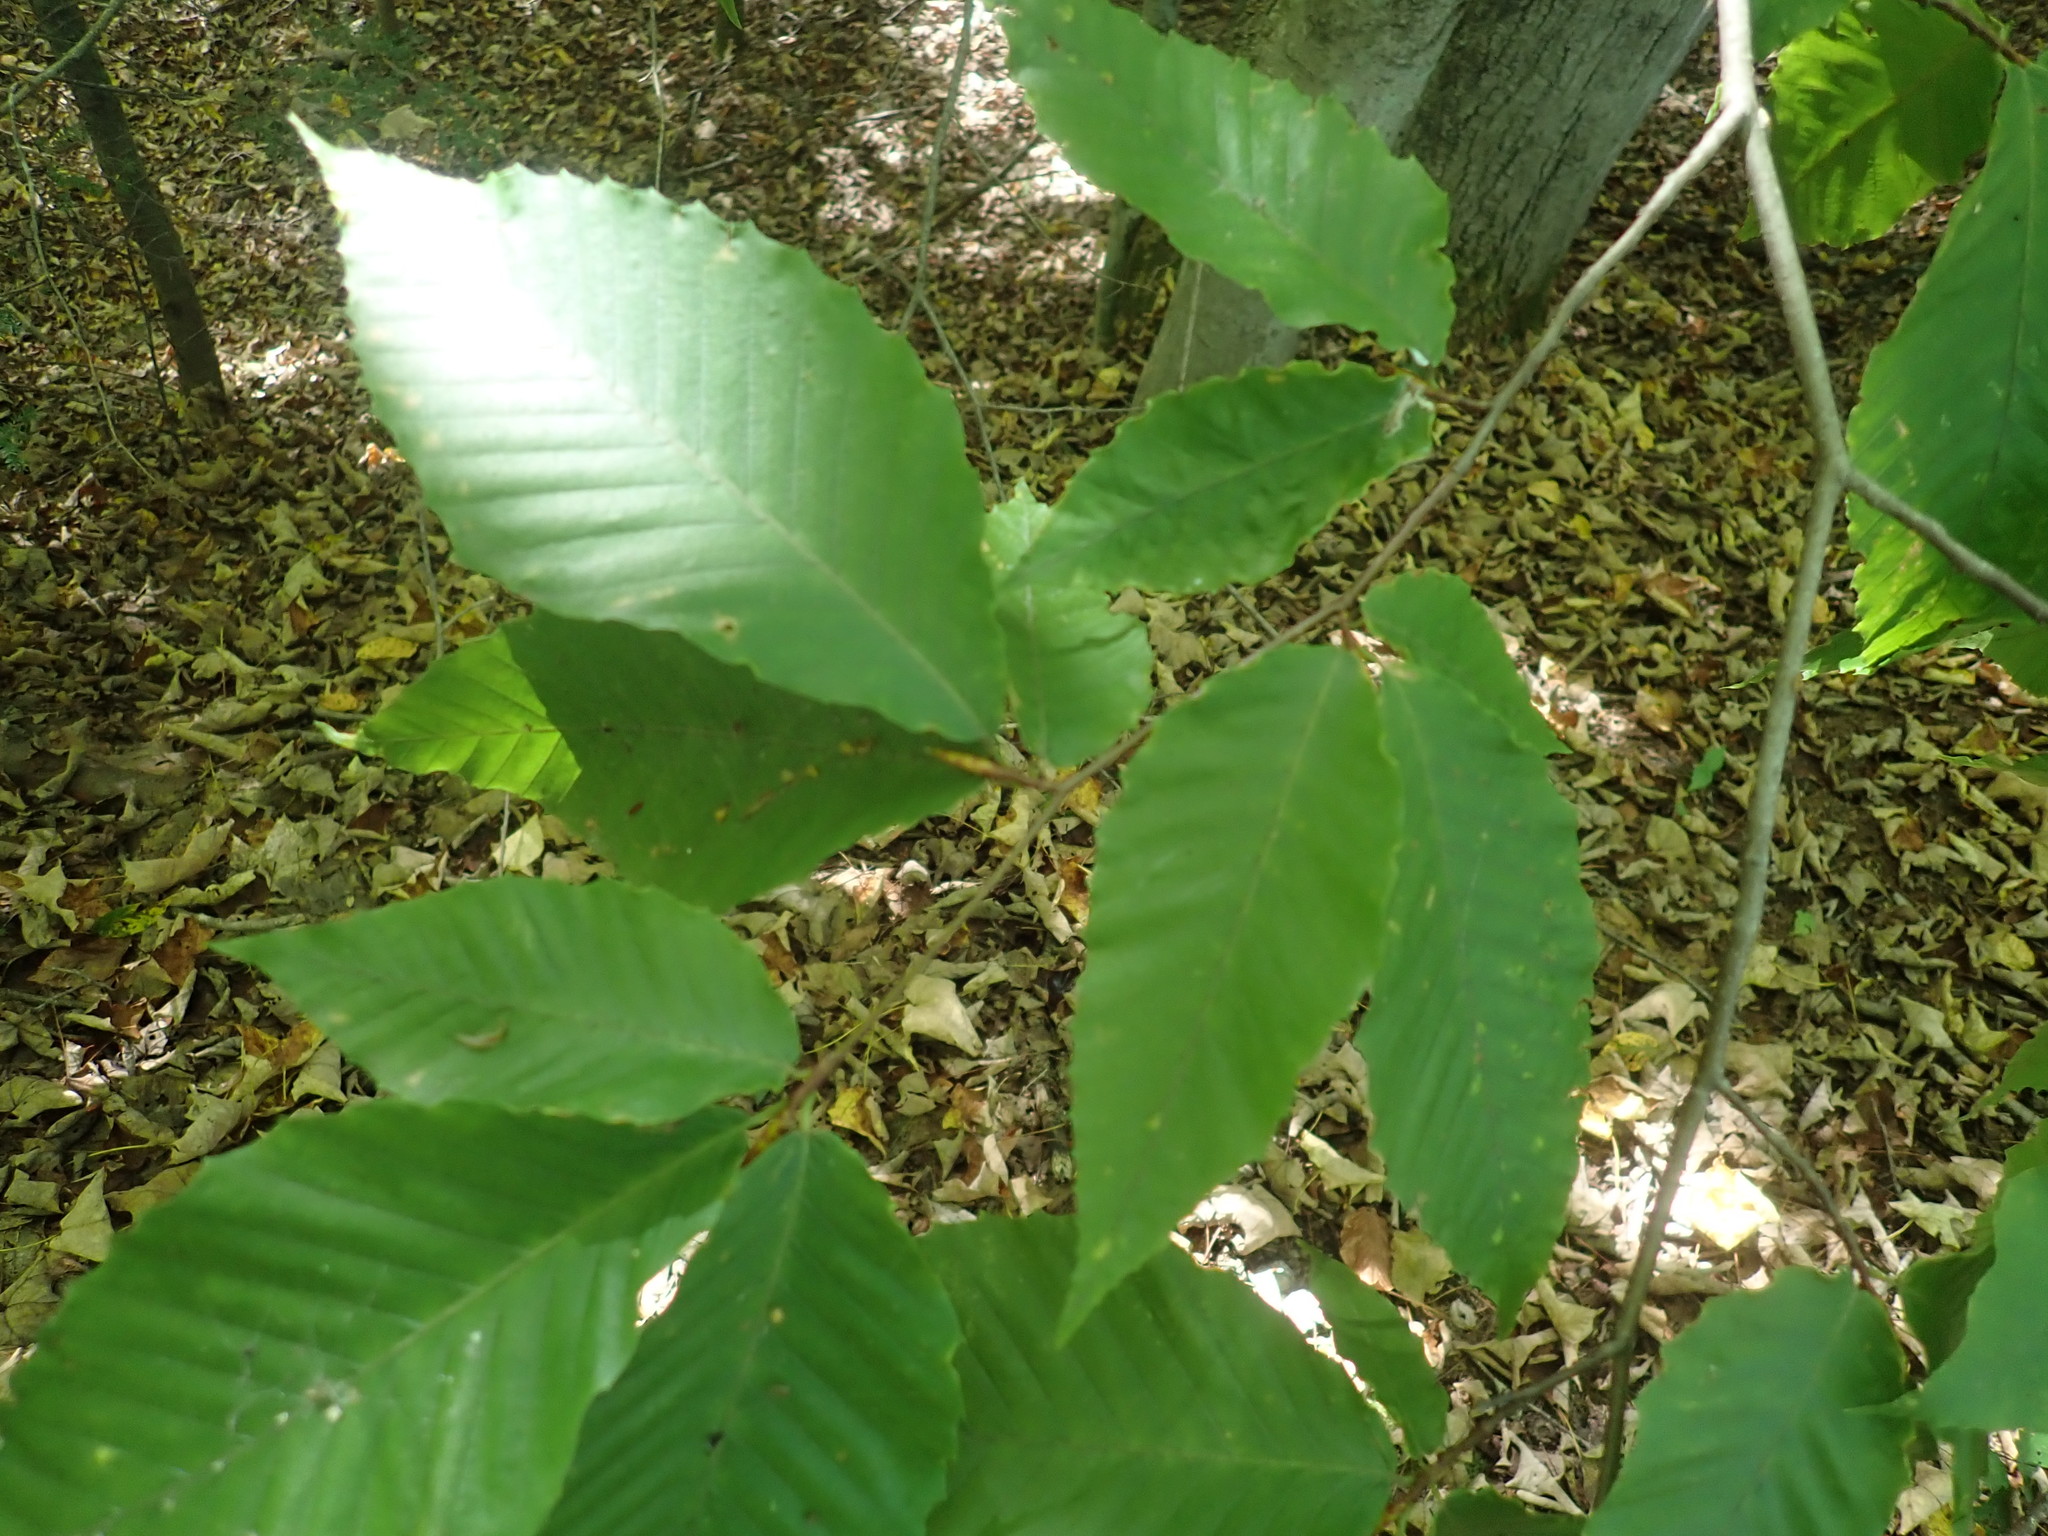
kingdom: Plantae
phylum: Tracheophyta
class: Magnoliopsida
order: Fagales
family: Fagaceae
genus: Fagus
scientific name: Fagus grandifolia
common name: American beech
